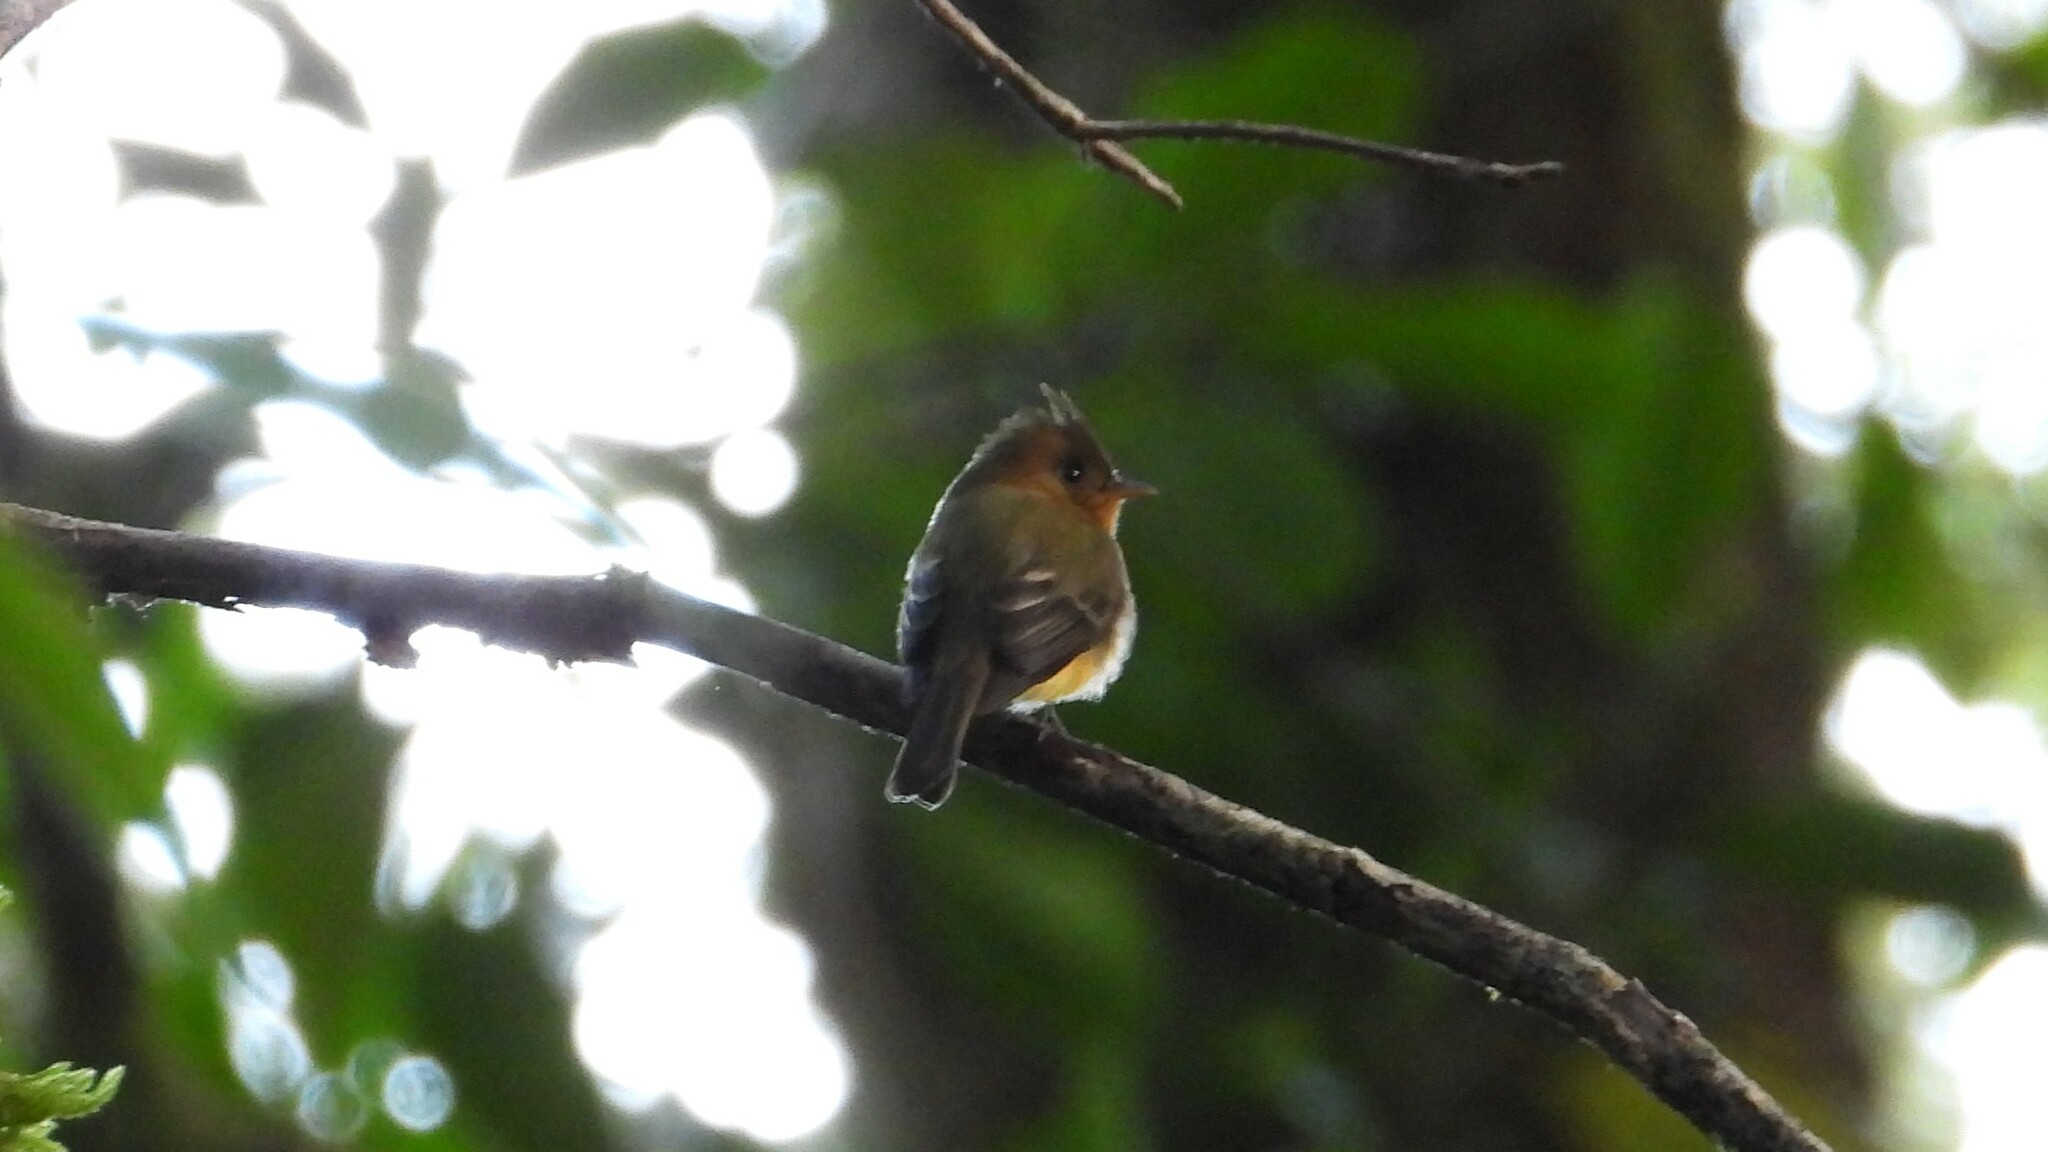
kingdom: Animalia
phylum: Chordata
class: Aves
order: Passeriformes
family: Tyrannidae
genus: Mitrephanes
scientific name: Mitrephanes phaeocercus
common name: Northern tufted flycatcher
